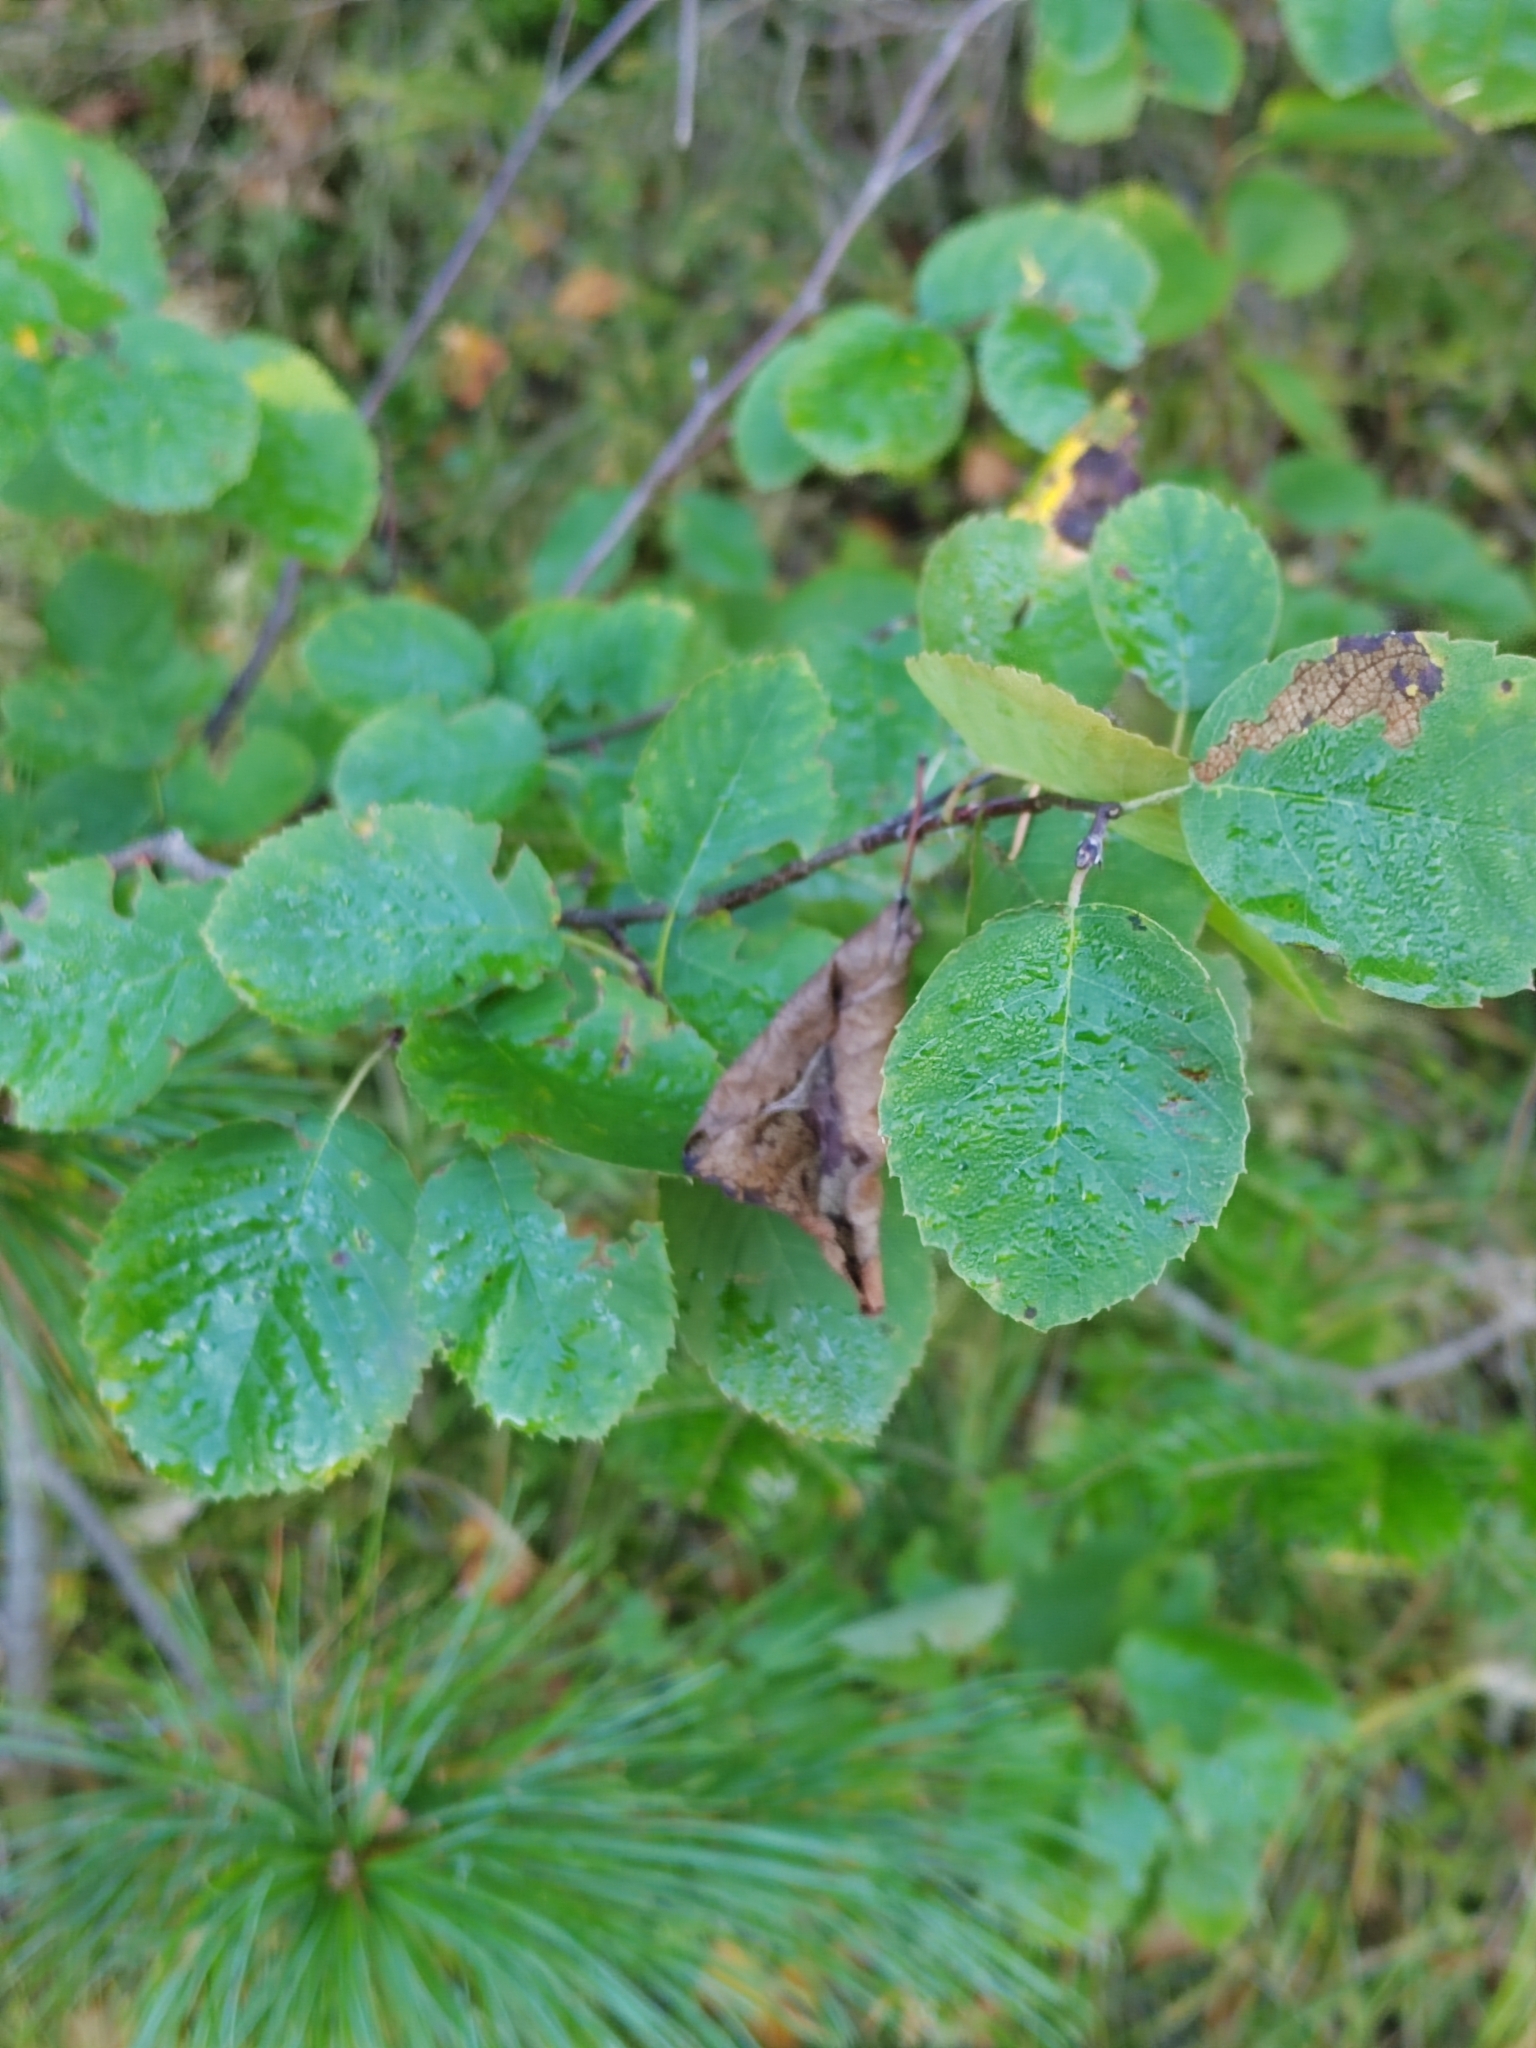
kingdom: Plantae
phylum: Tracheophyta
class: Magnoliopsida
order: Rosales
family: Rosaceae
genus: Amelanchier
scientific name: Amelanchier
